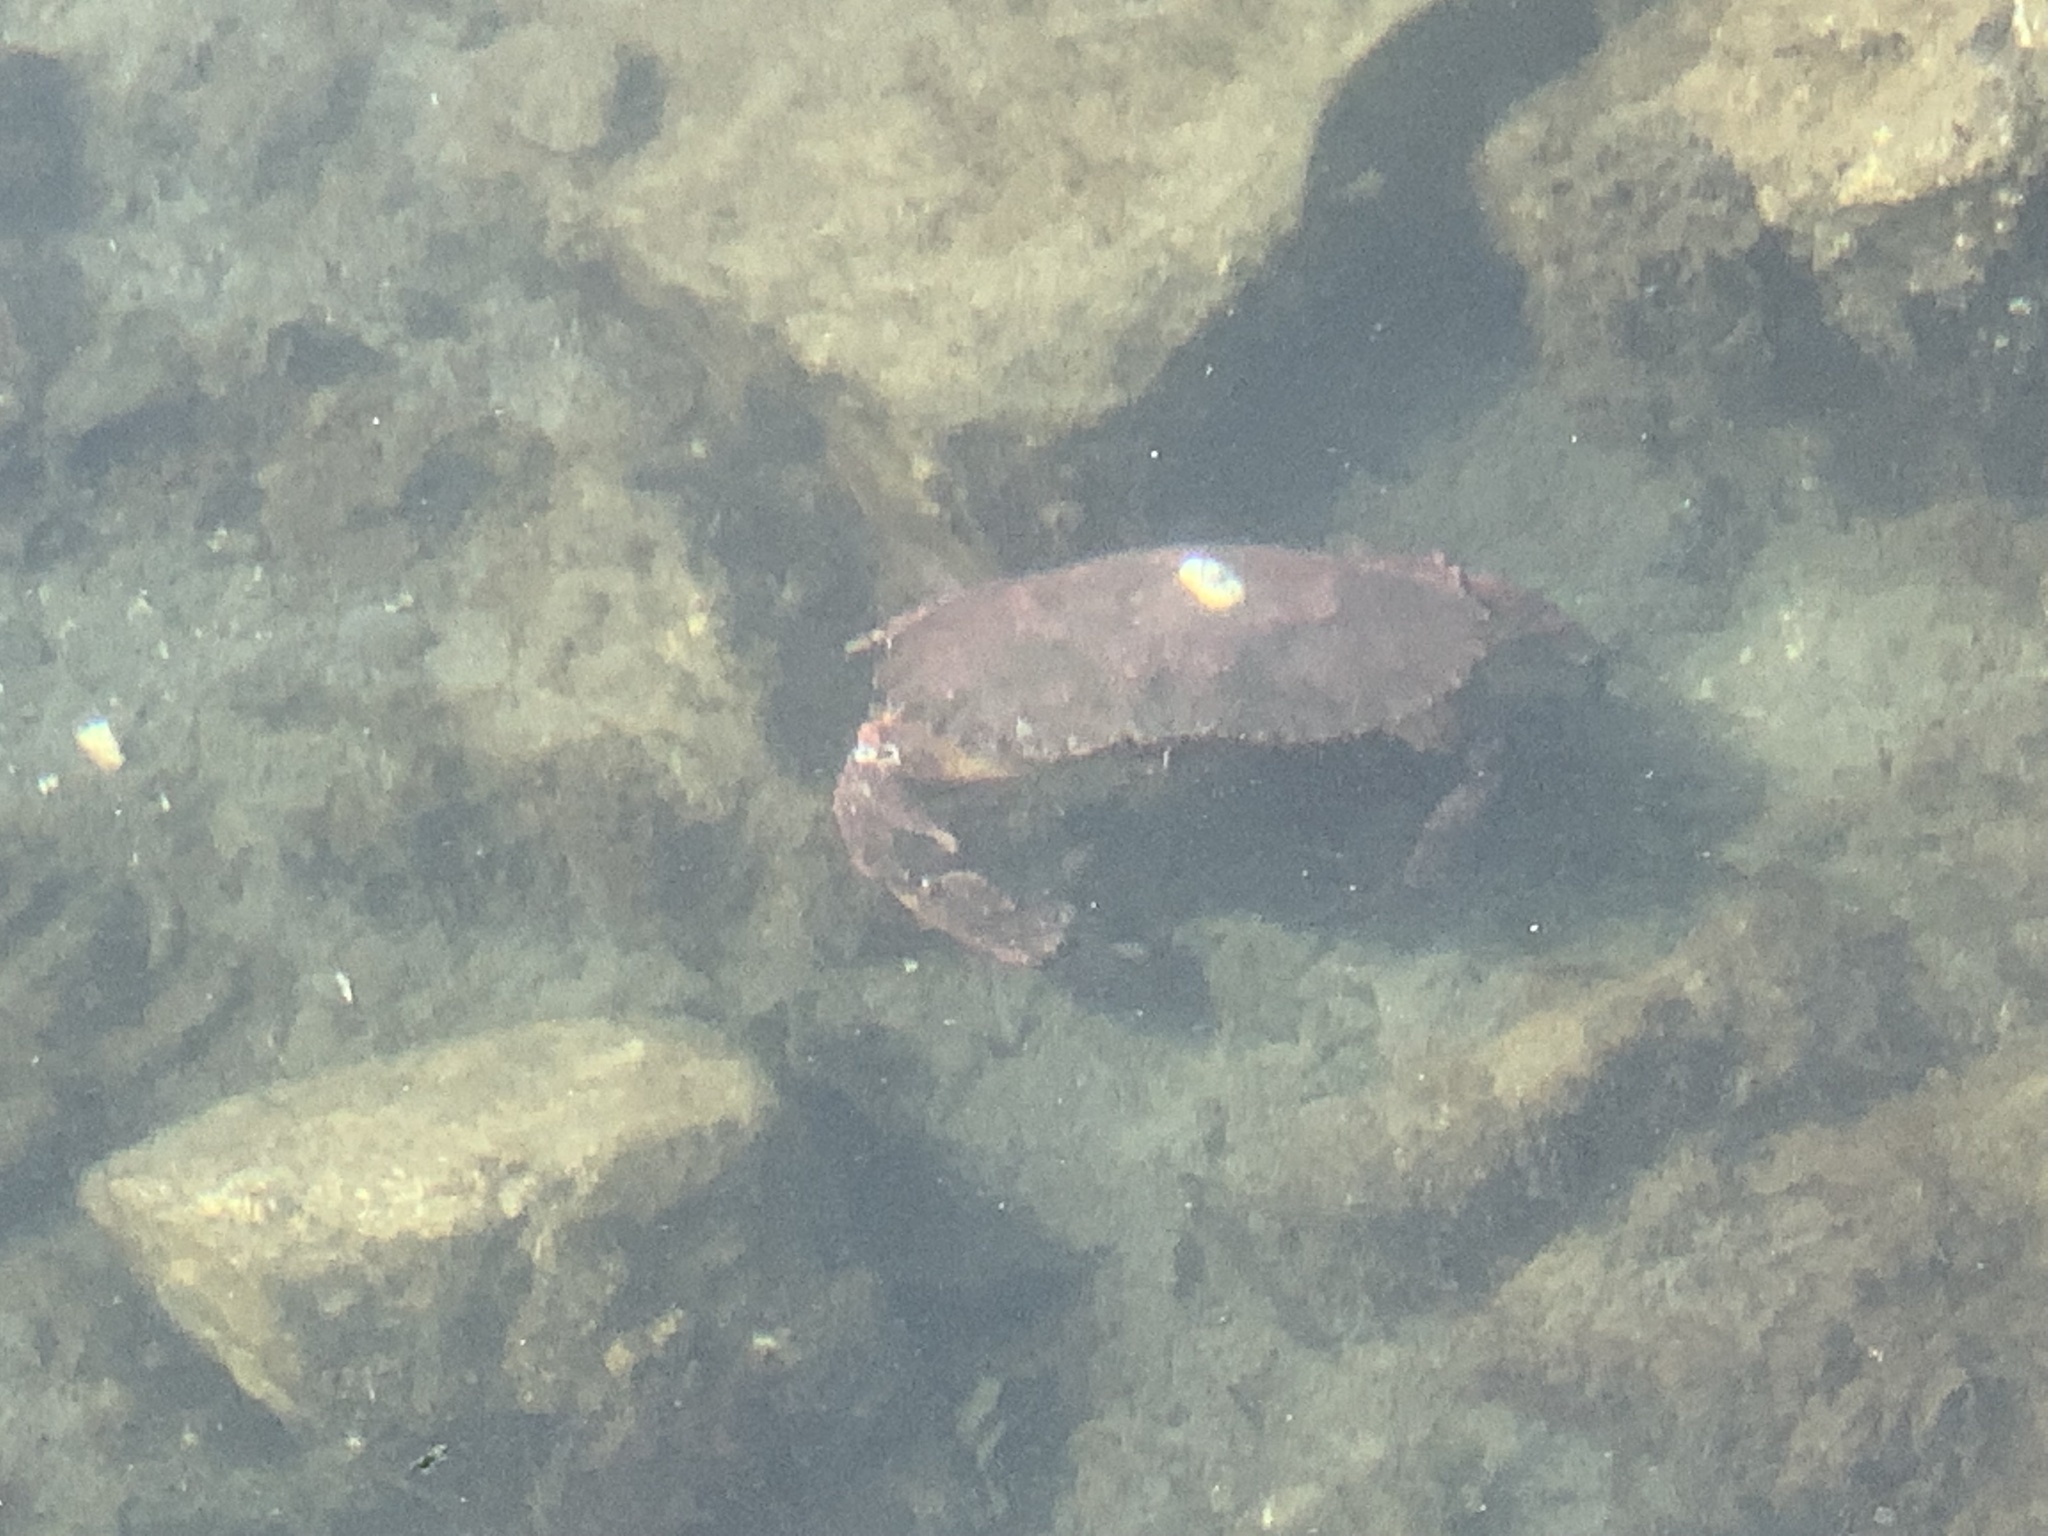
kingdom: Animalia
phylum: Arthropoda
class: Malacostraca
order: Decapoda
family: Cancridae
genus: Cancer
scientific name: Cancer productus
